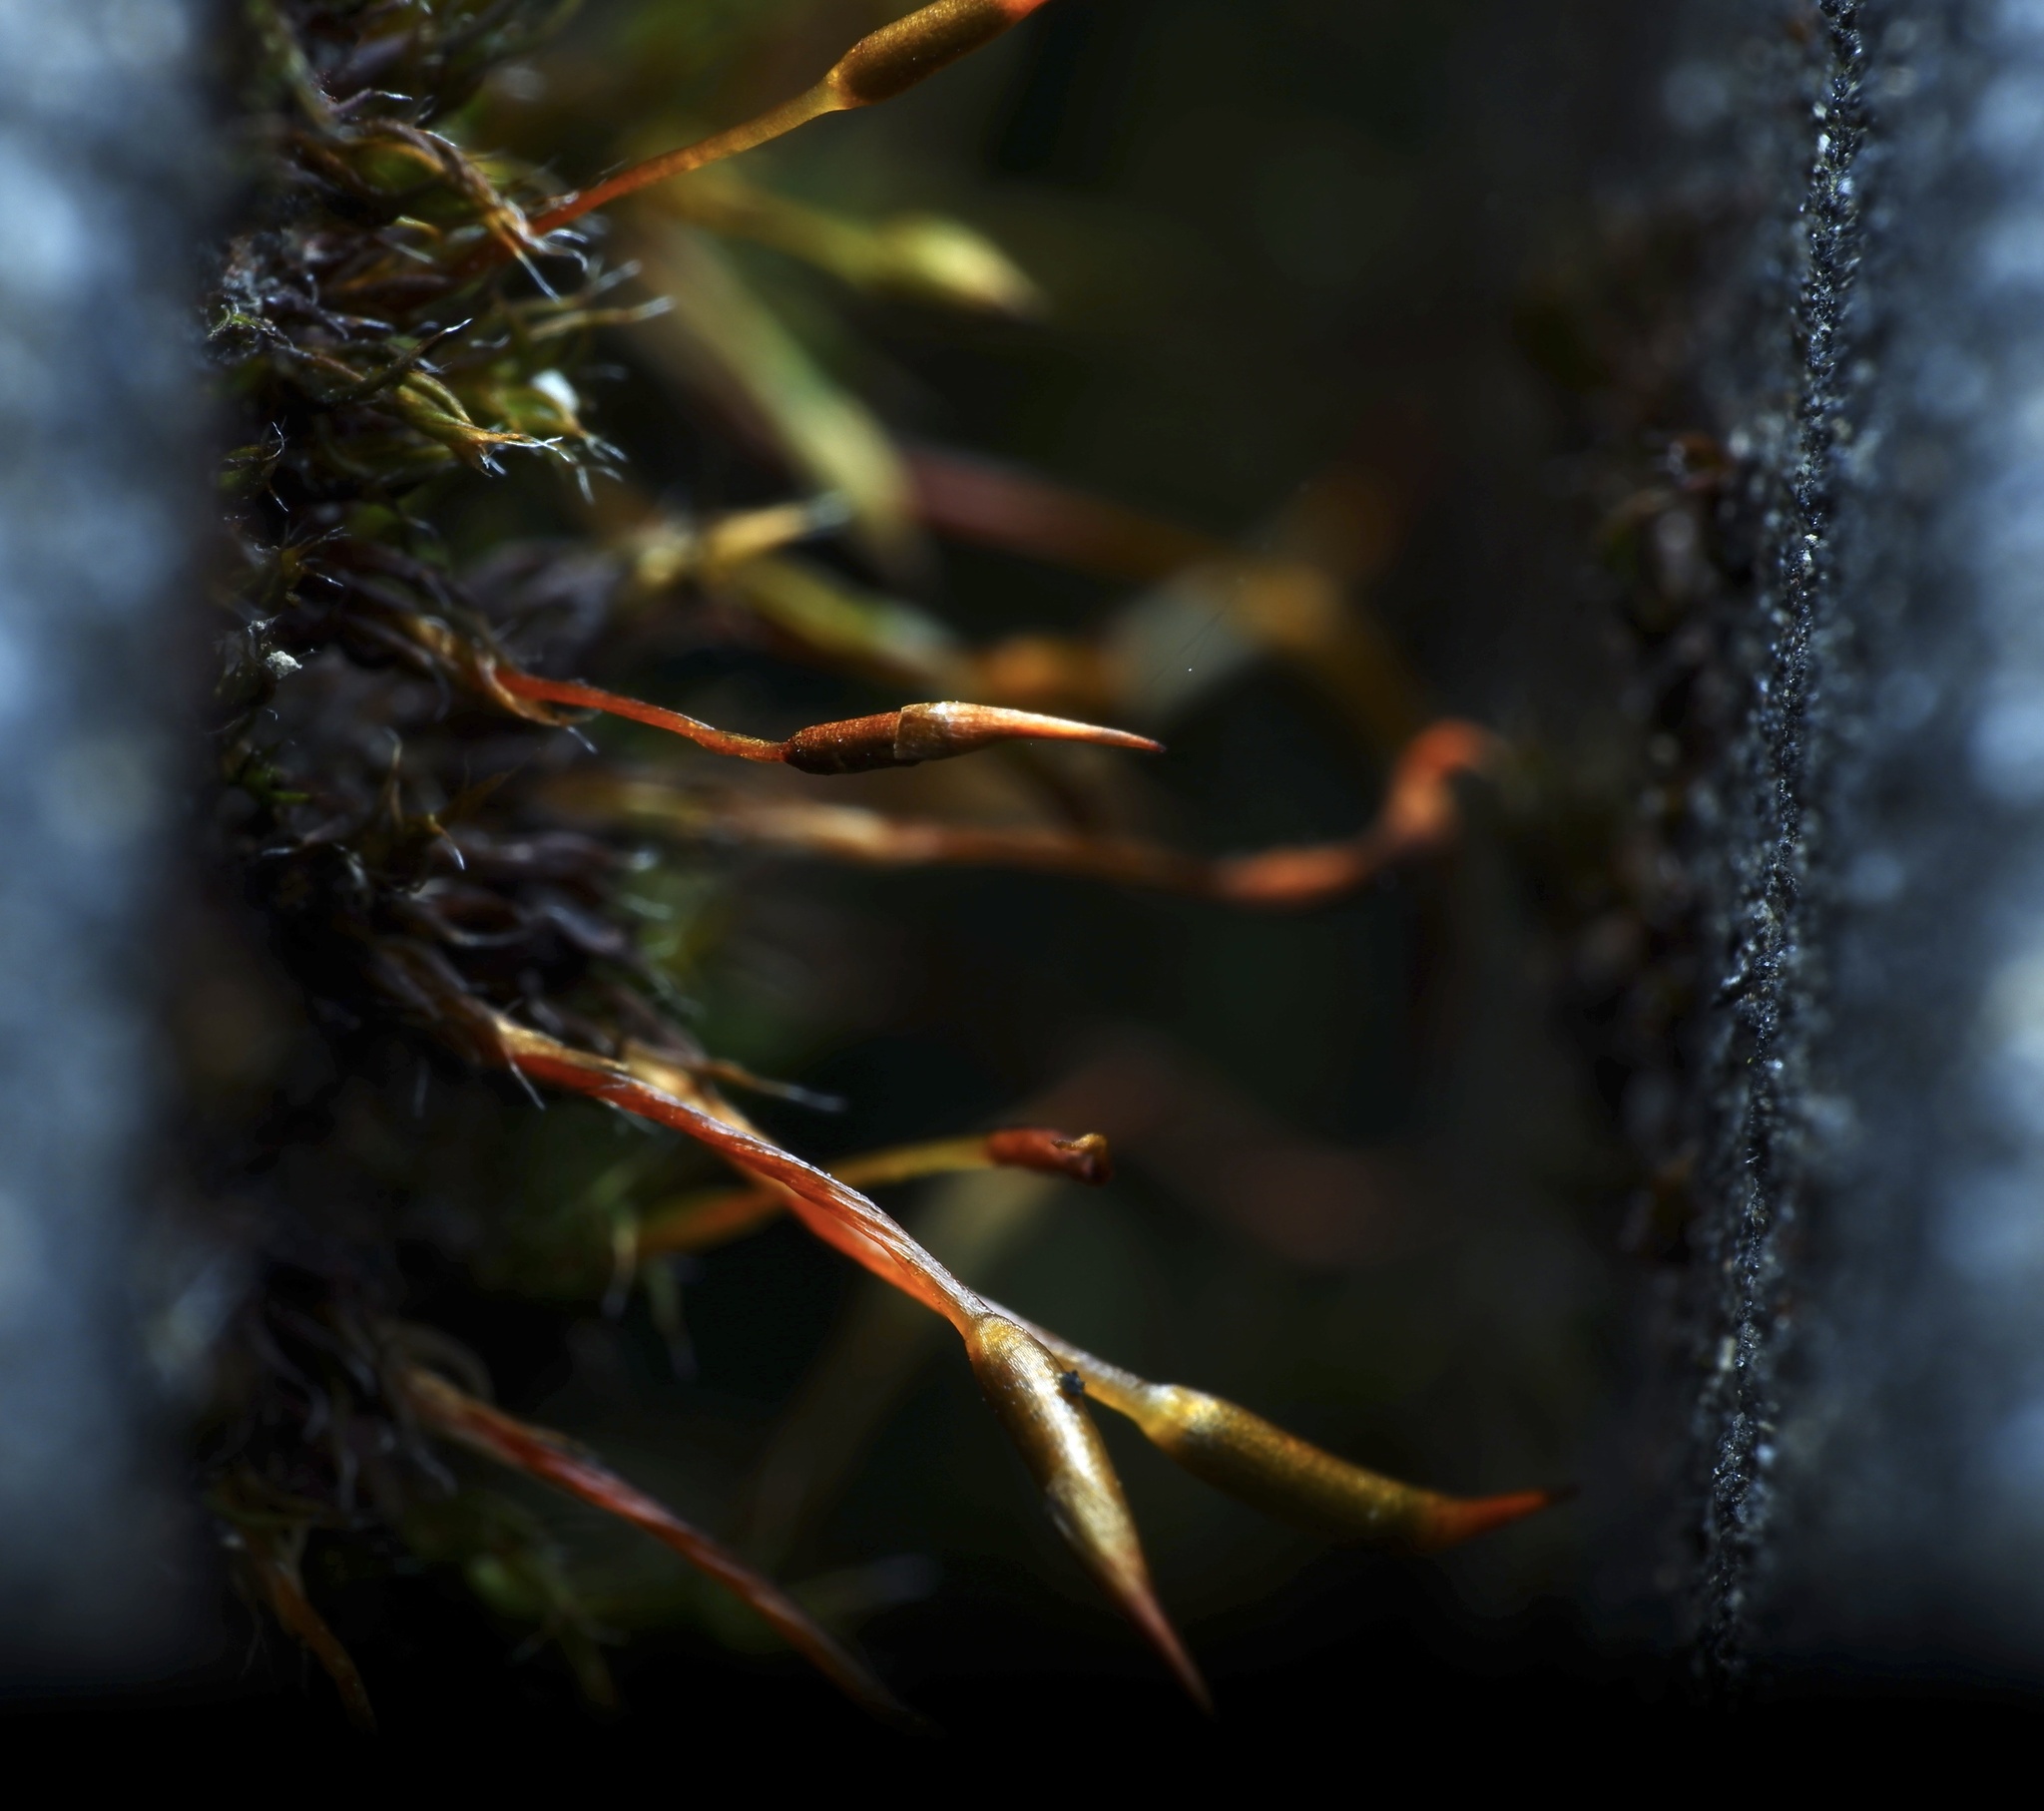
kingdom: Plantae
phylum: Bryophyta
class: Bryopsida
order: Pottiales
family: Pottiaceae
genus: Tortula
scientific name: Tortula muralis
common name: Wall screw-moss
